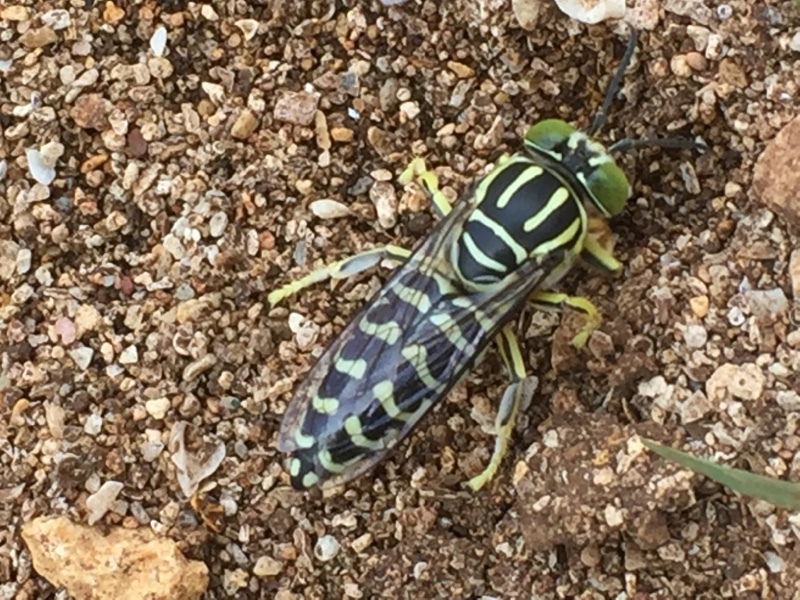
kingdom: Animalia
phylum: Arthropoda
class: Insecta
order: Hymenoptera
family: Crabronidae
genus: Stictia
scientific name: Stictia signata
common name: Sand wasp
